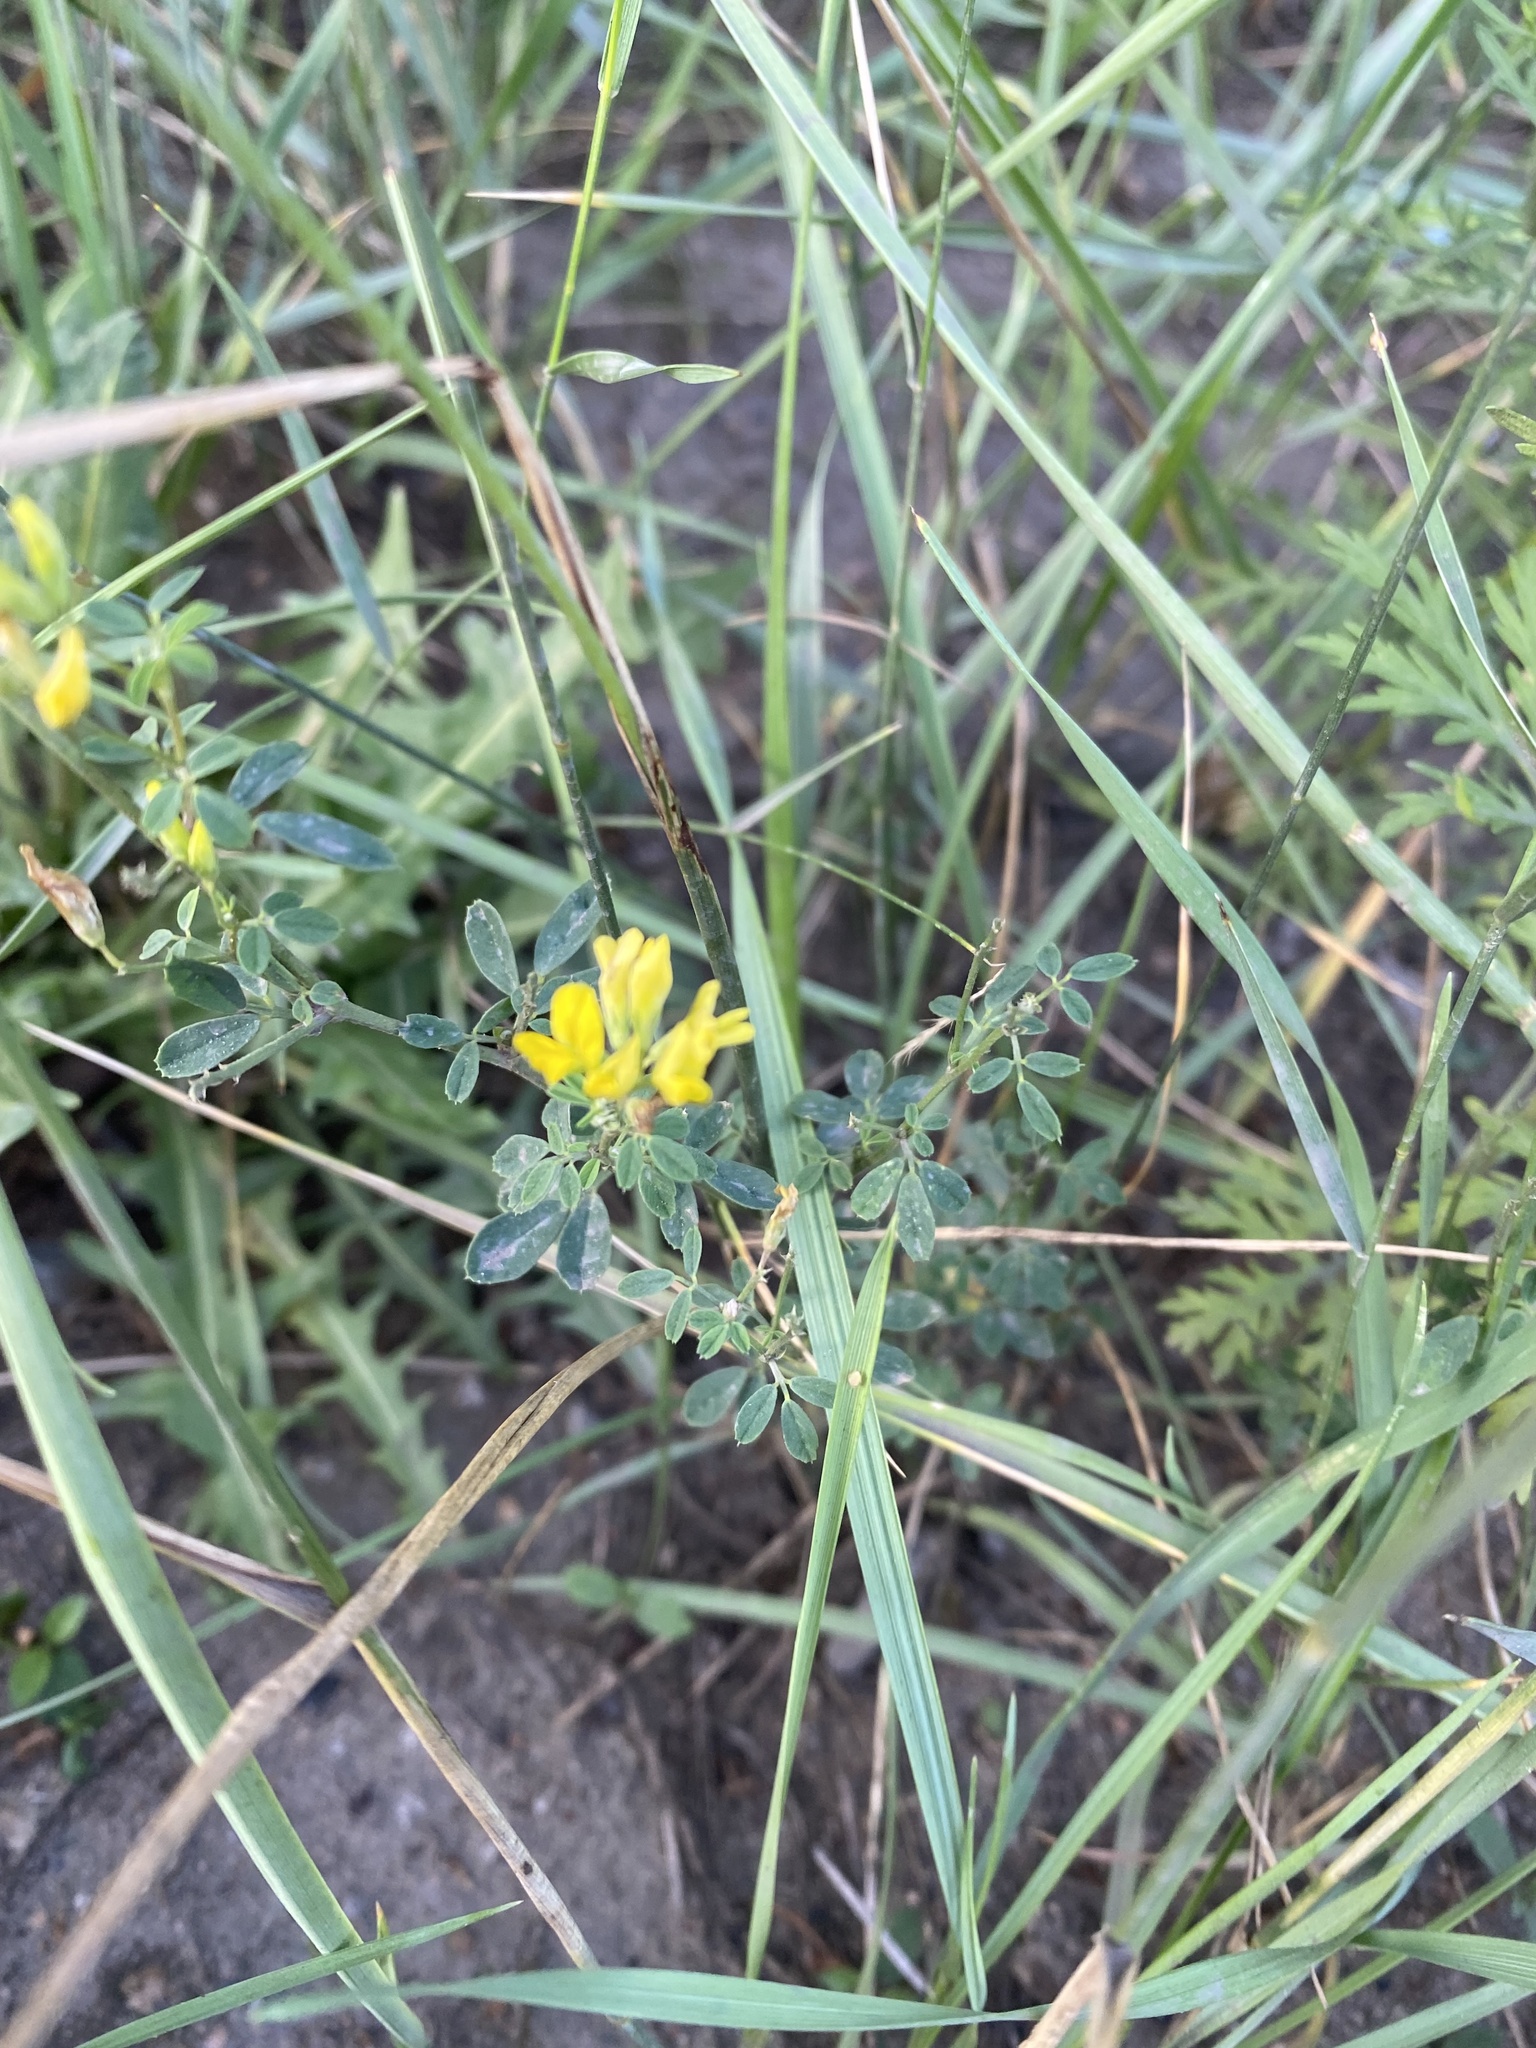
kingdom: Plantae
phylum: Tracheophyta
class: Magnoliopsida
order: Fabales
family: Fabaceae
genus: Medicago
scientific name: Medicago falcata
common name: Sickle medick
